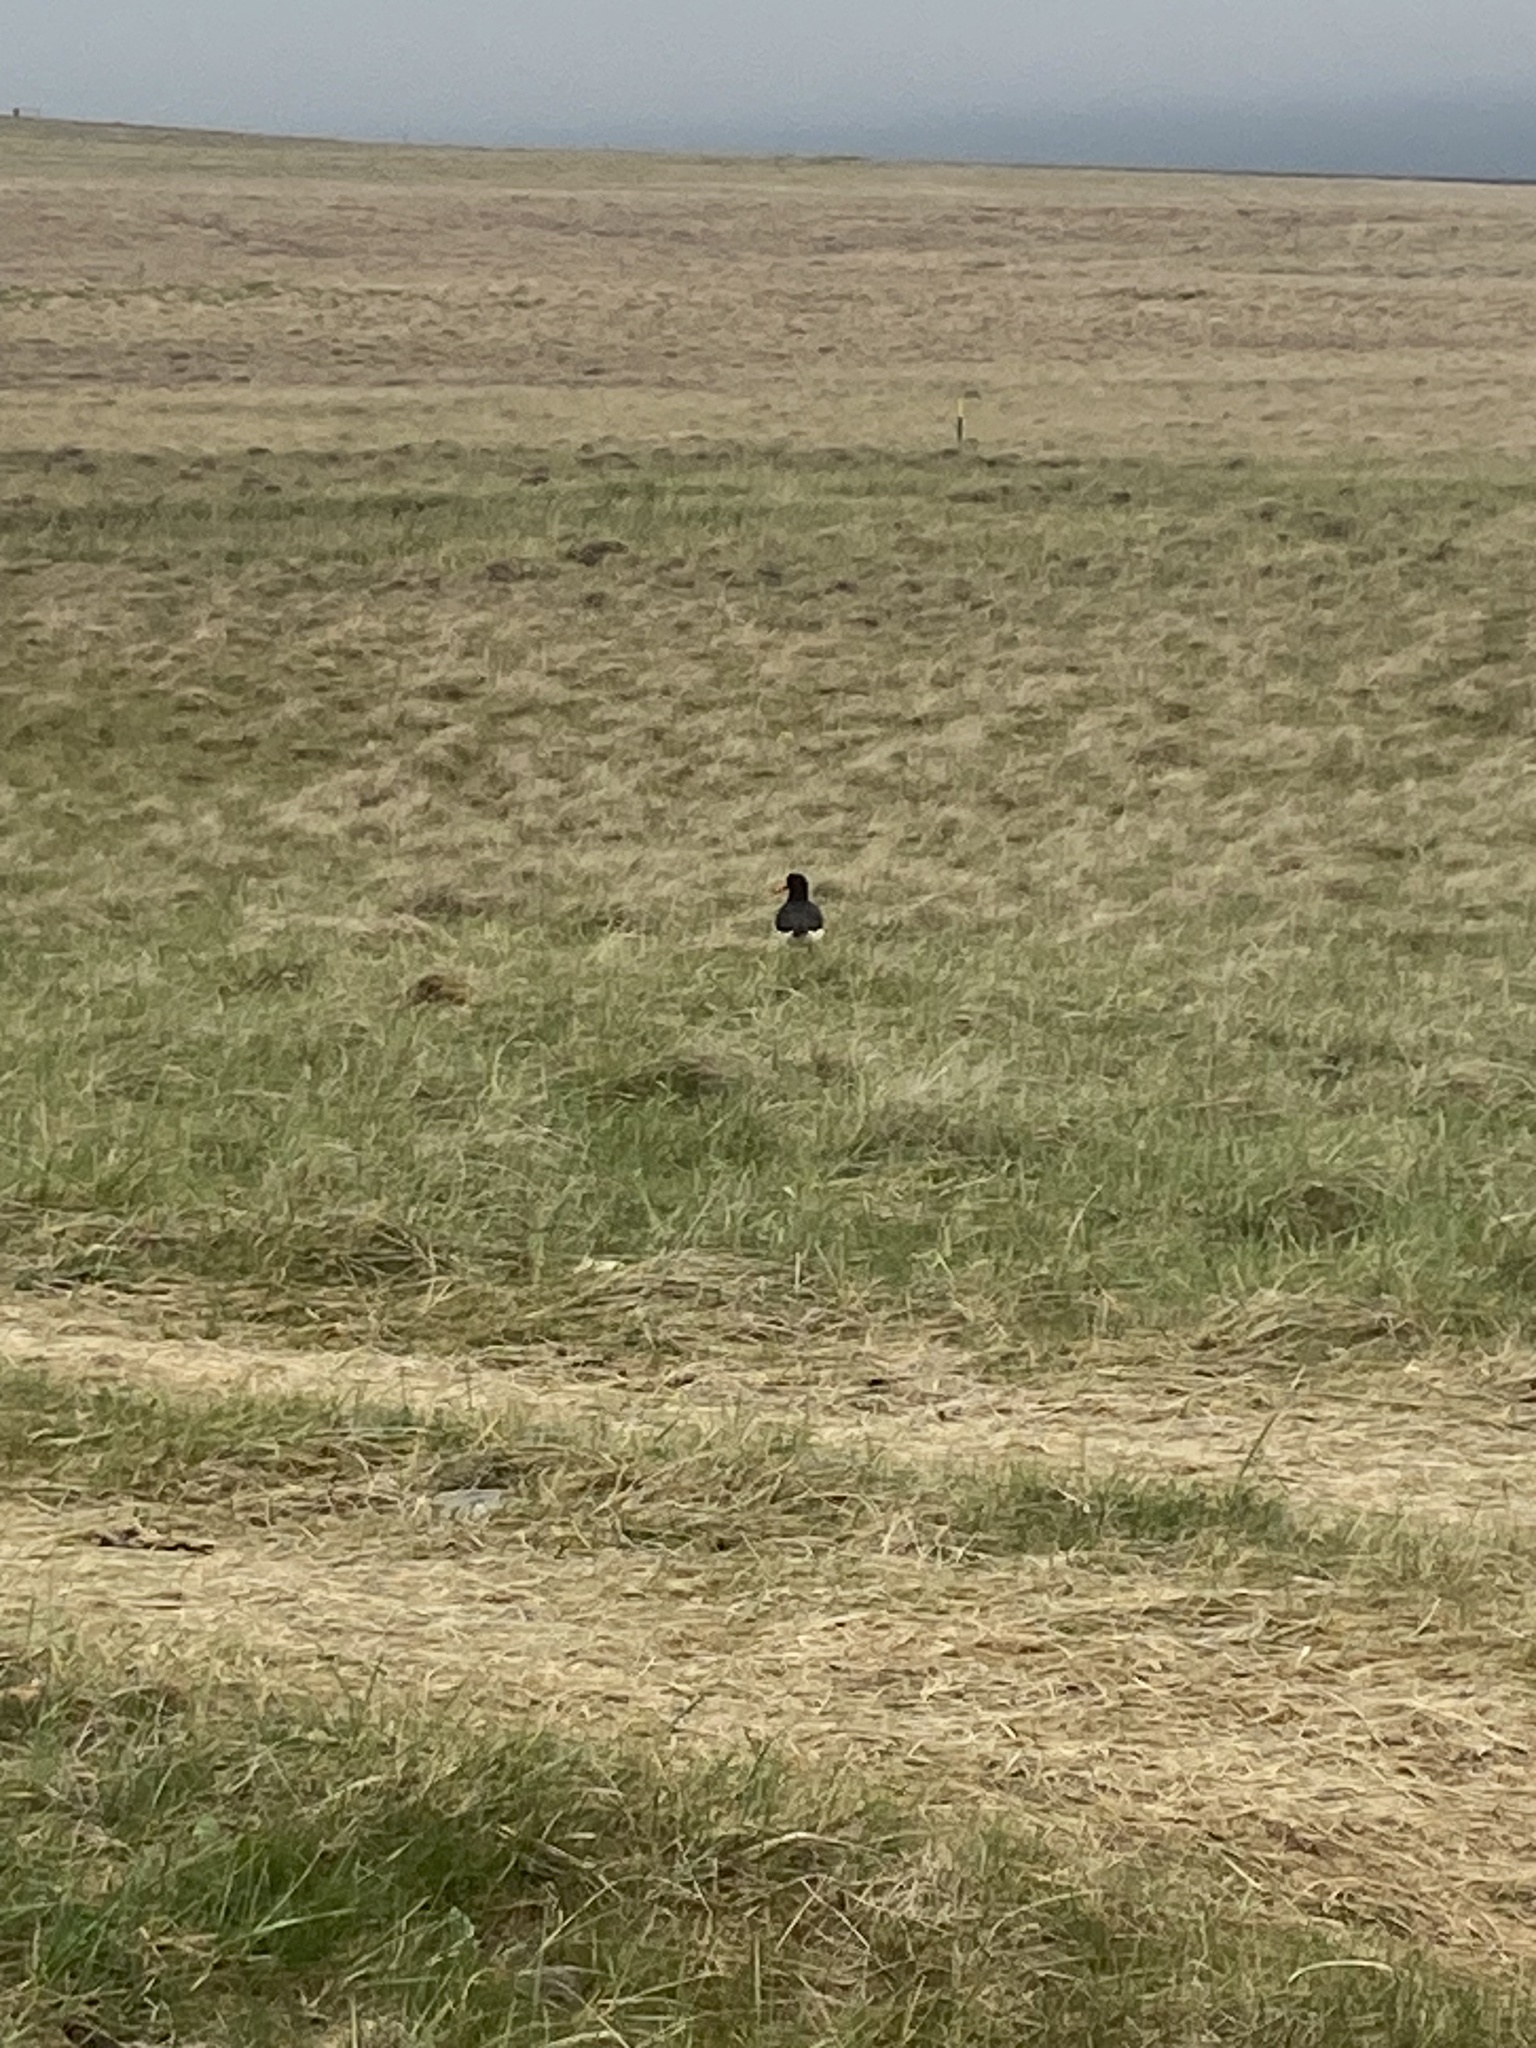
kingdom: Animalia
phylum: Chordata
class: Aves
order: Charadriiformes
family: Haematopodidae
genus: Haematopus
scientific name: Haematopus ostralegus
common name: Eurasian oystercatcher
